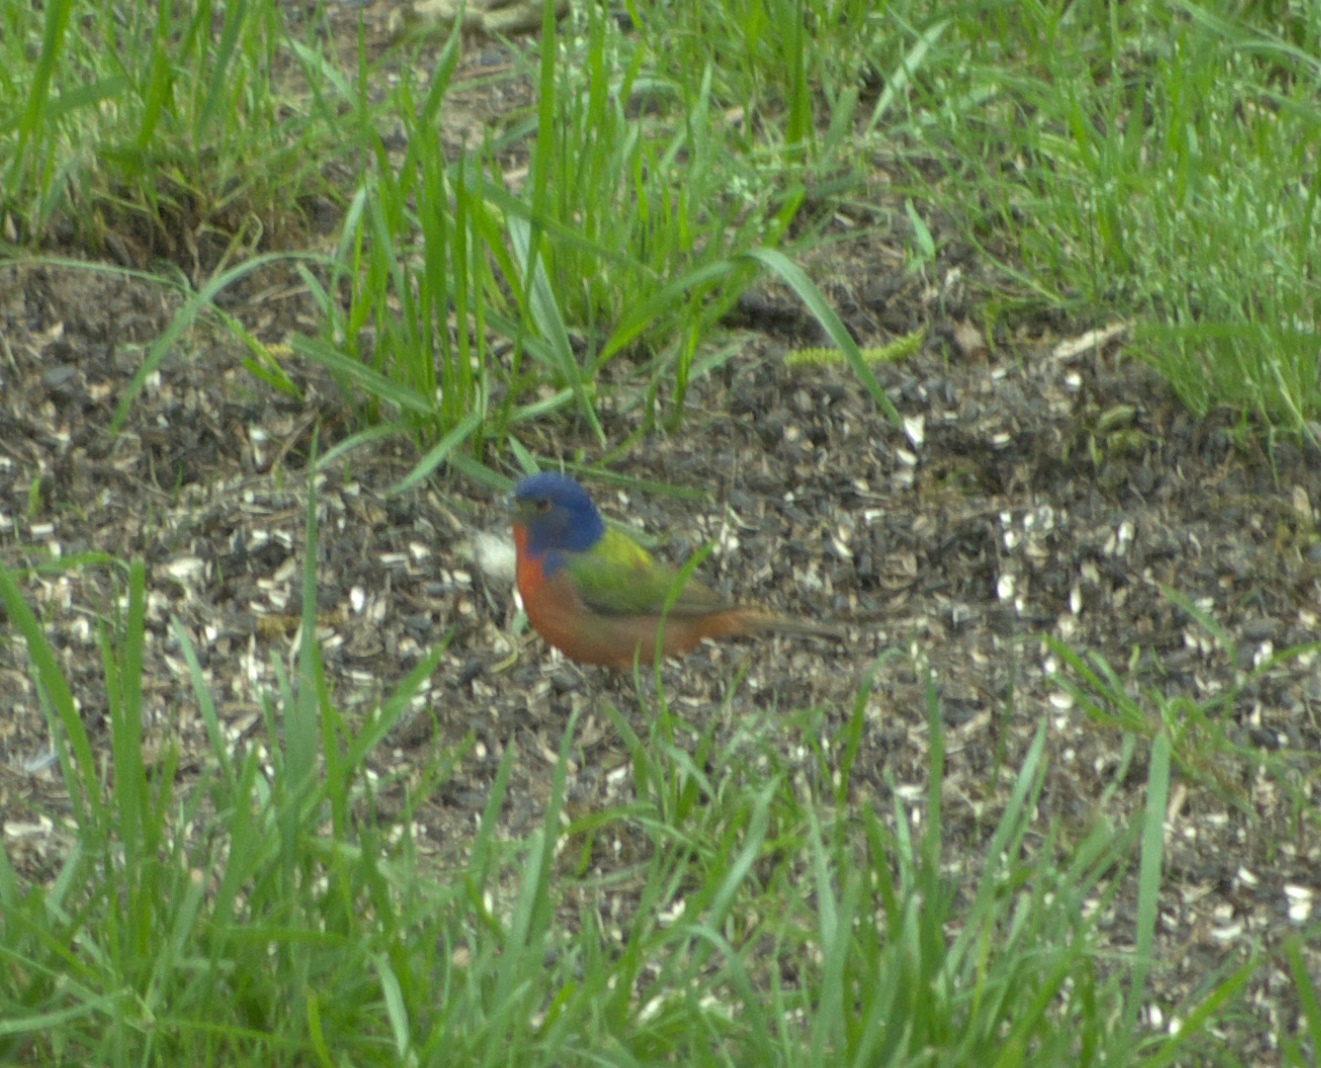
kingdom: Animalia
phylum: Chordata
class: Aves
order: Passeriformes
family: Cardinalidae
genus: Passerina
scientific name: Passerina ciris
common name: Painted bunting
